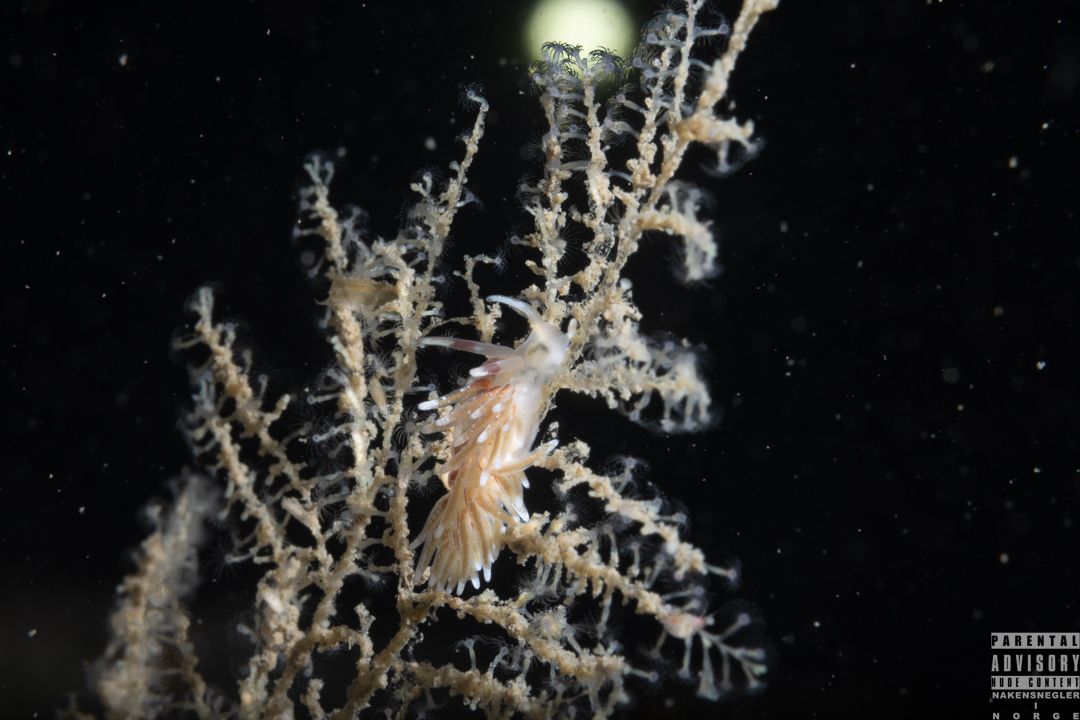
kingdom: Animalia
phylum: Mollusca
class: Gastropoda
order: Nudibranchia
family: Trinchesiidae
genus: Rubramoena
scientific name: Rubramoena rubescens
